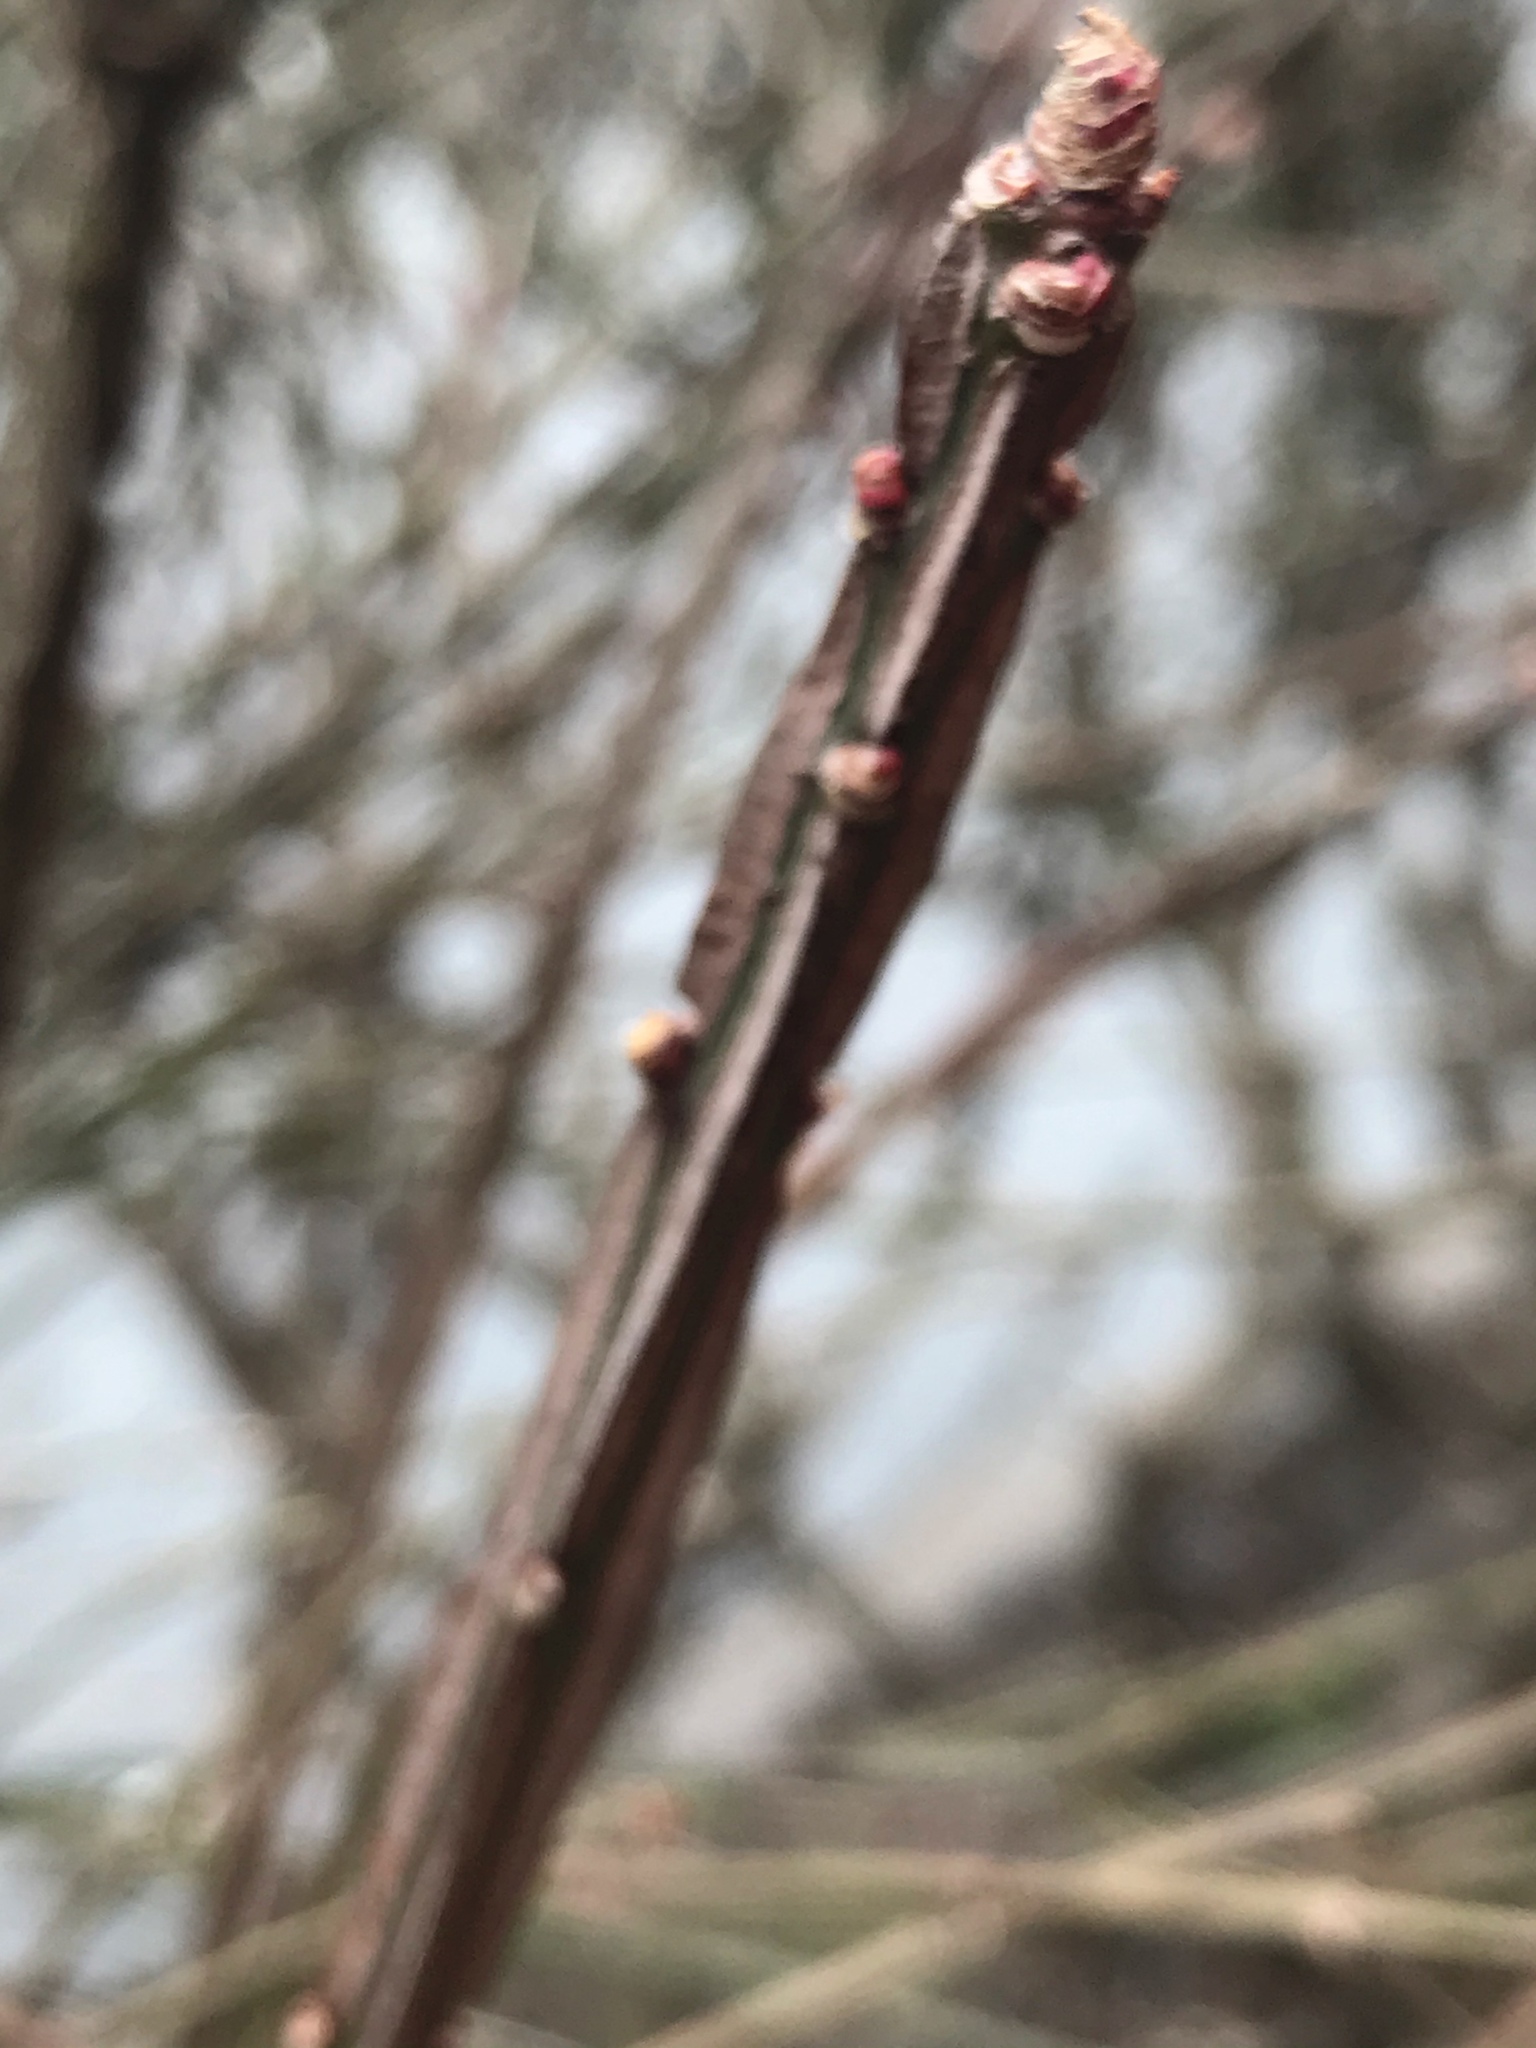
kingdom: Plantae
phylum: Tracheophyta
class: Magnoliopsida
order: Celastrales
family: Celastraceae
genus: Euonymus
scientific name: Euonymus alatus
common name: Winged euonymus
